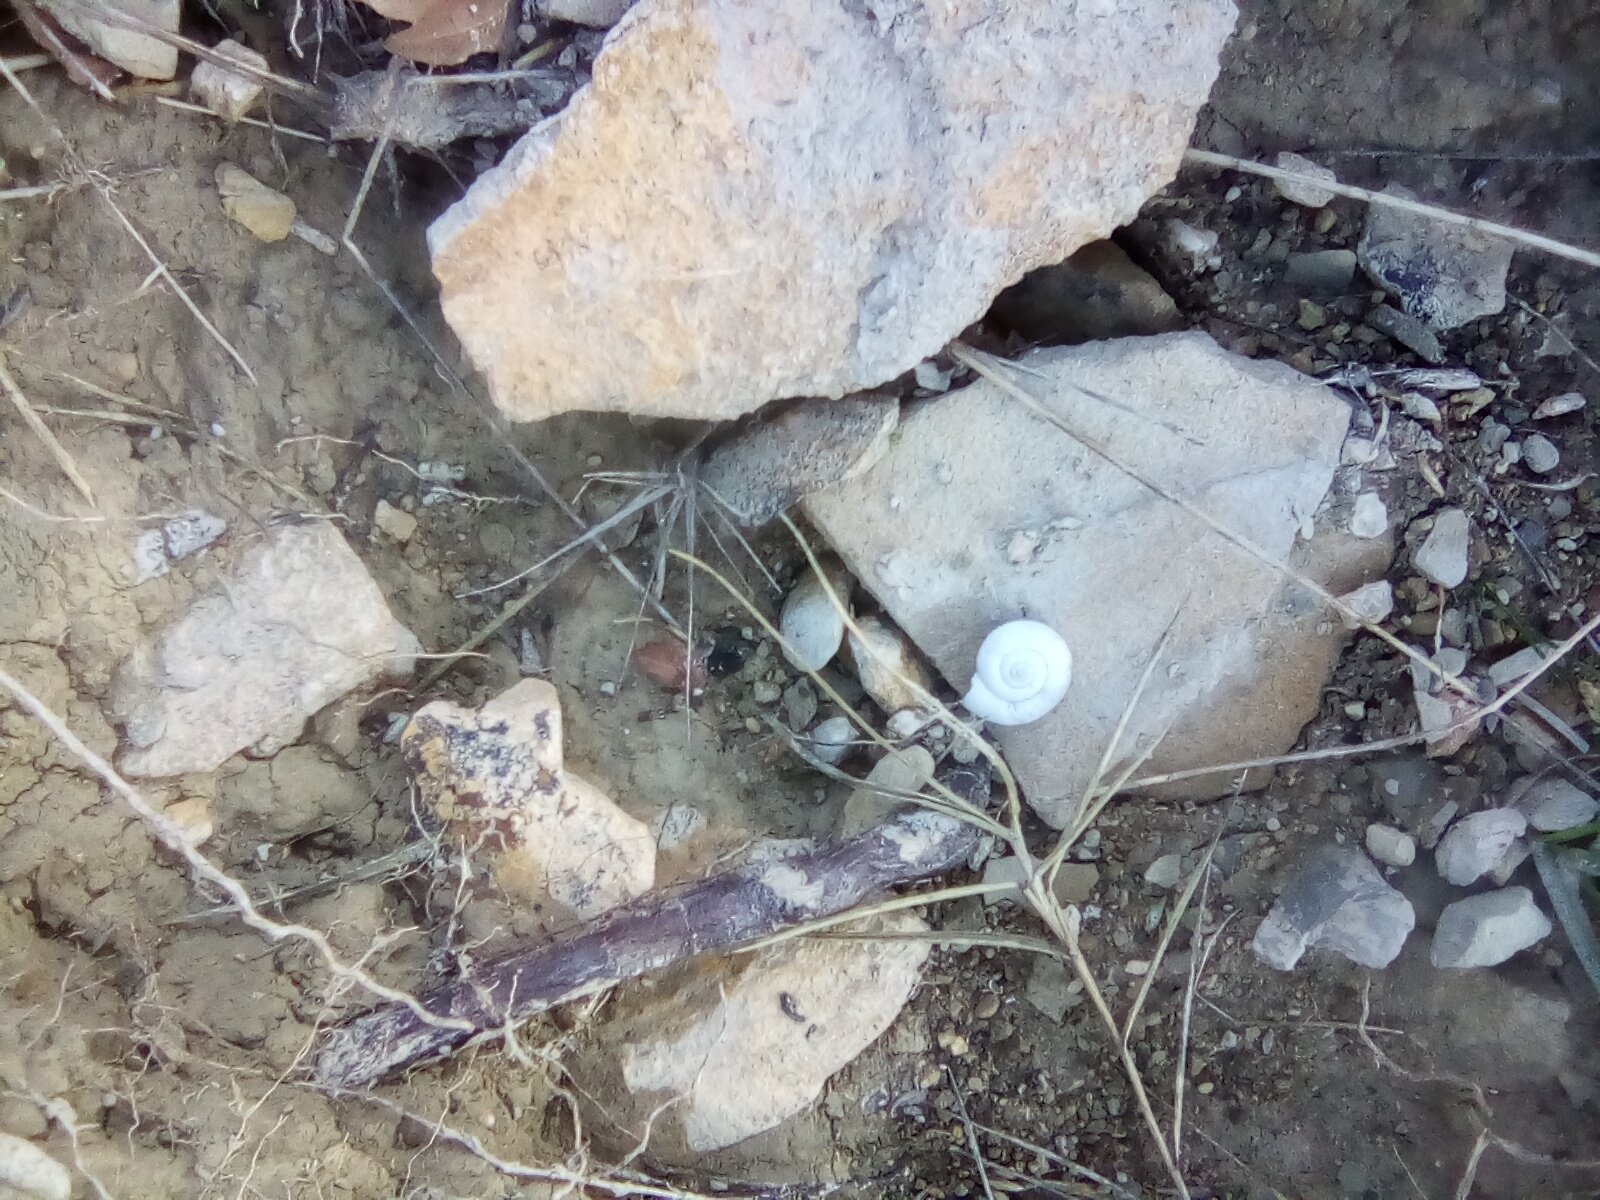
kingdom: Animalia
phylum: Mollusca
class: Gastropoda
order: Stylommatophora
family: Geomitridae
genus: Xeropicta
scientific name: Xeropicta derbentina
